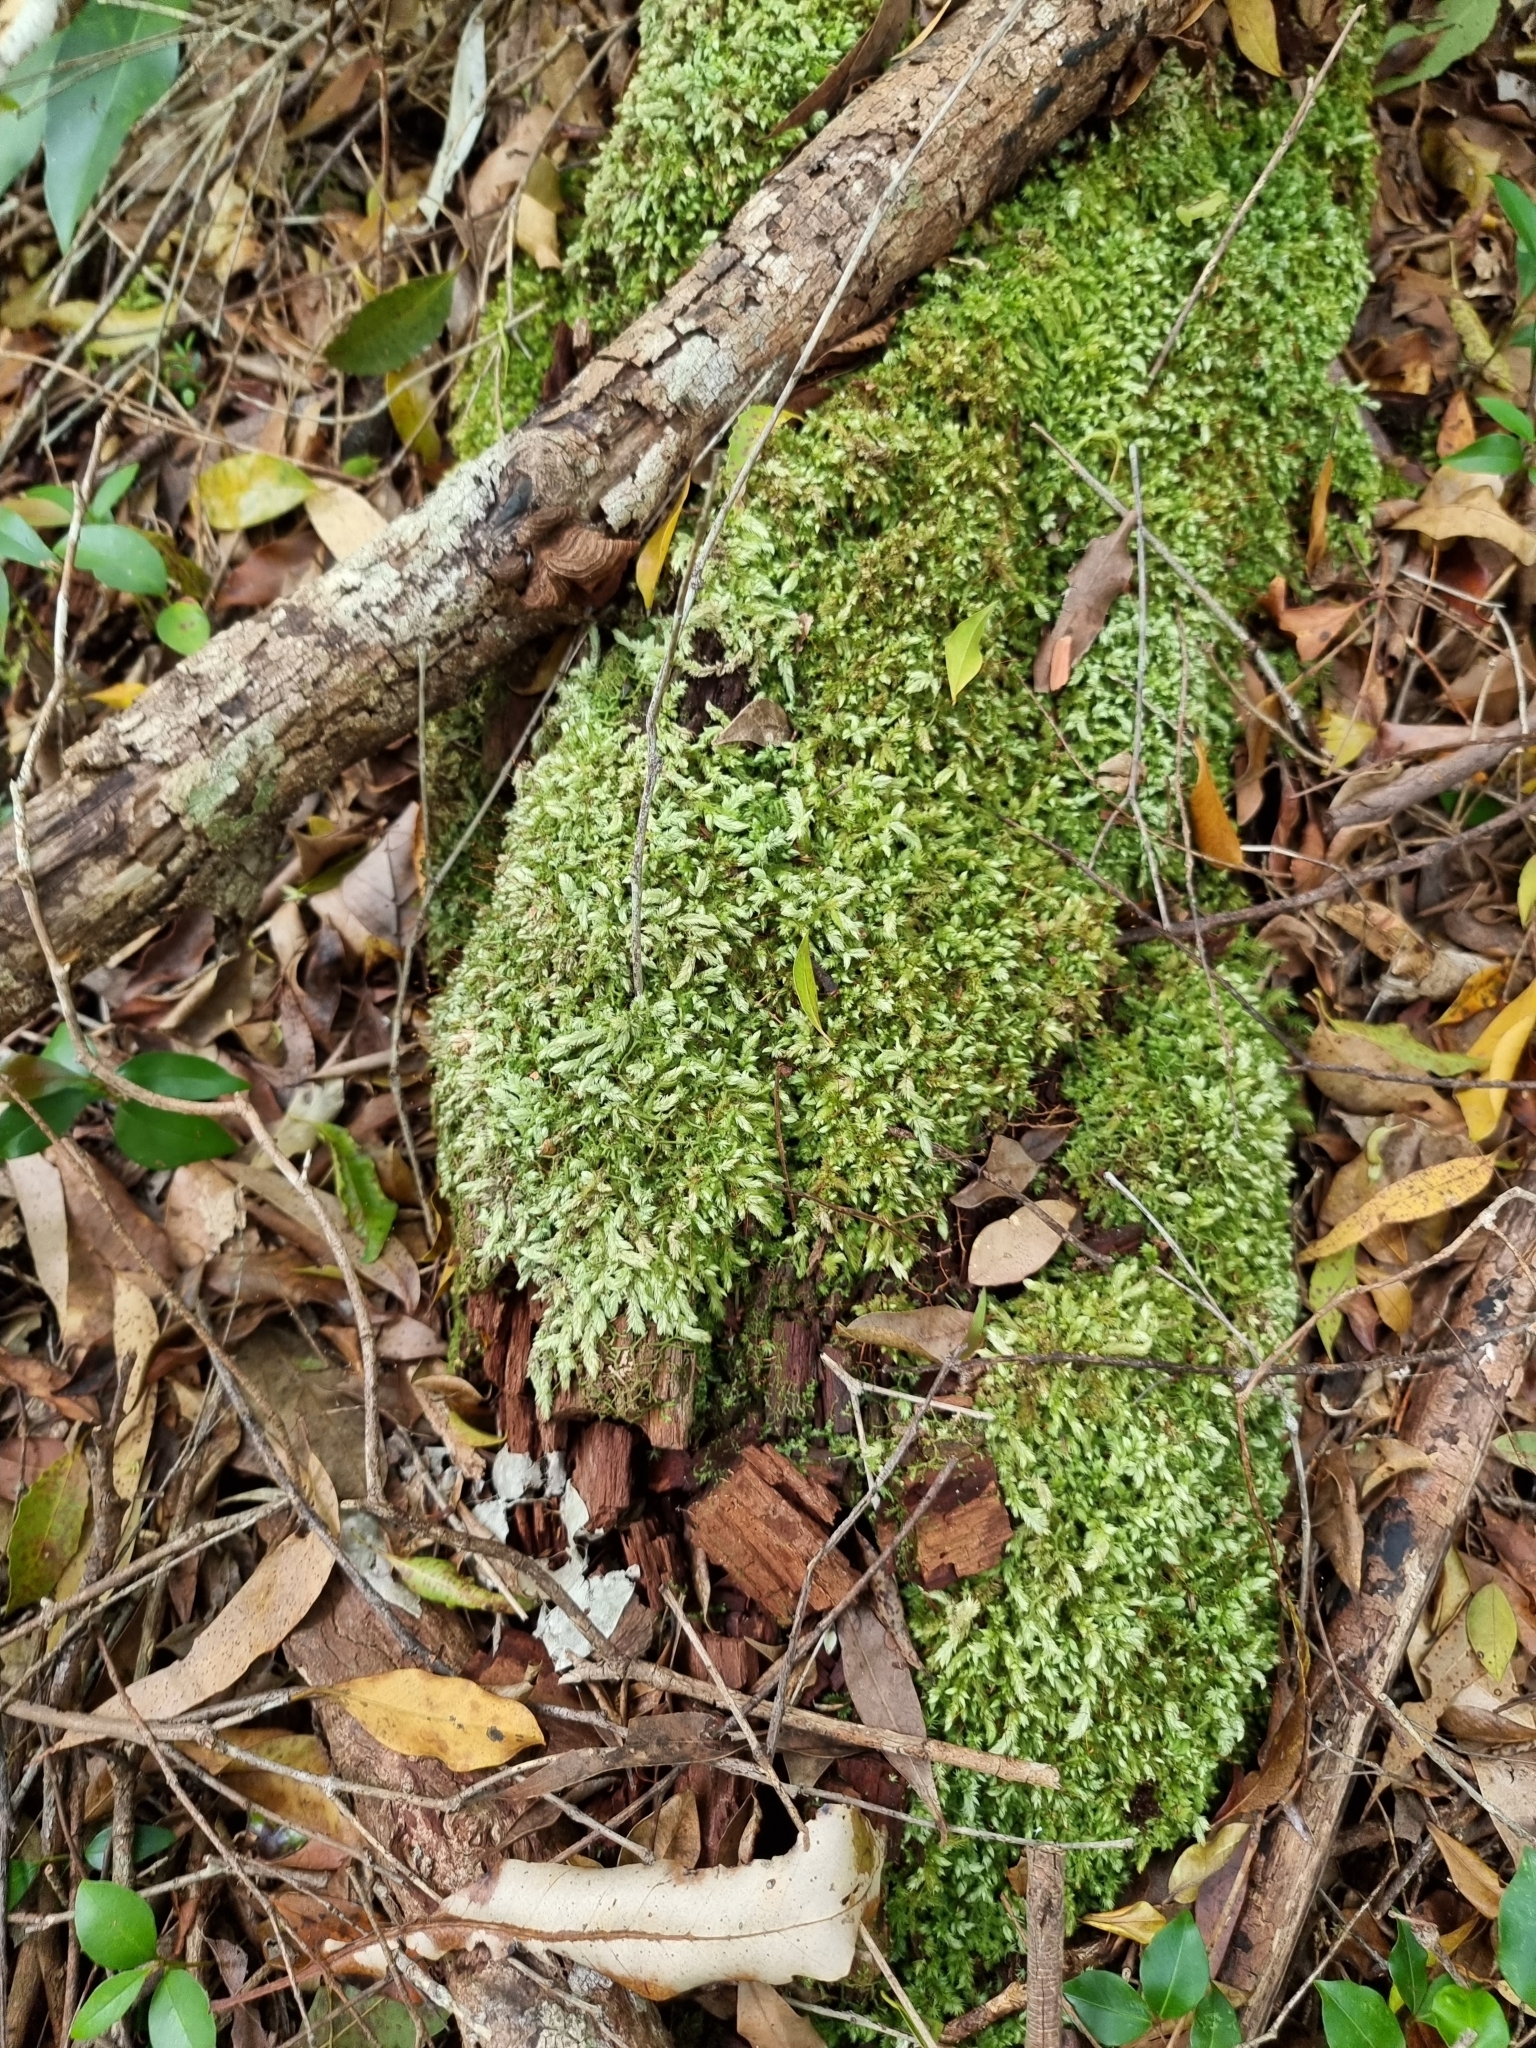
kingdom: Plantae
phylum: Bryophyta
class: Bryopsida
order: Dicranales
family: Leucobryaceae
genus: Leucobryum
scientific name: Leucobryum aduncum
